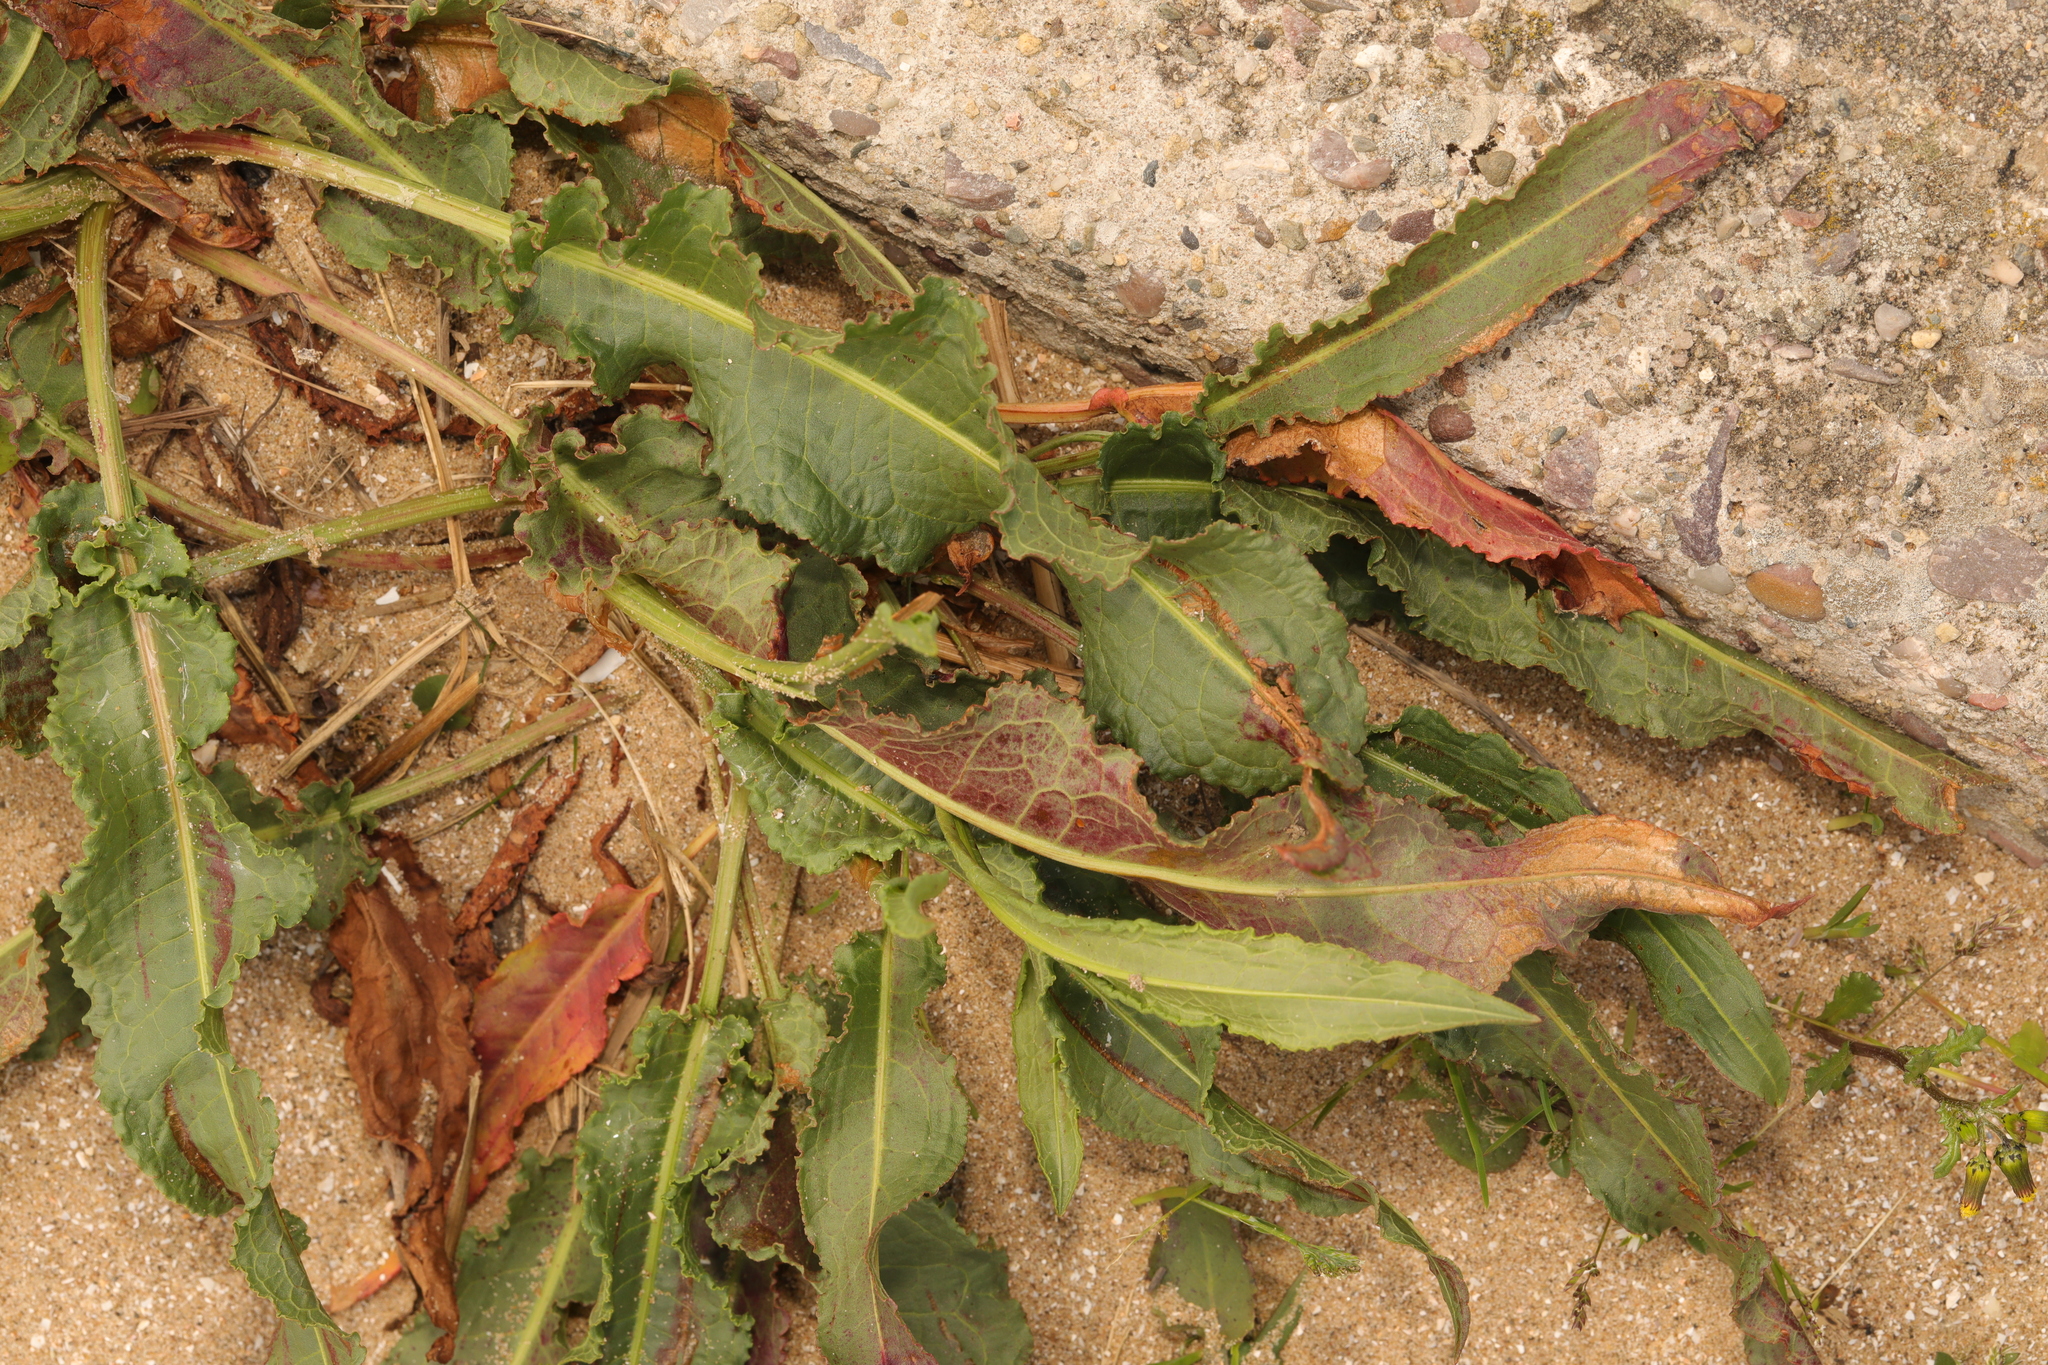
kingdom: Plantae
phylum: Tracheophyta
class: Magnoliopsida
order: Caryophyllales
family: Polygonaceae
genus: Rumex
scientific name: Rumex crispus
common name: Curled dock
